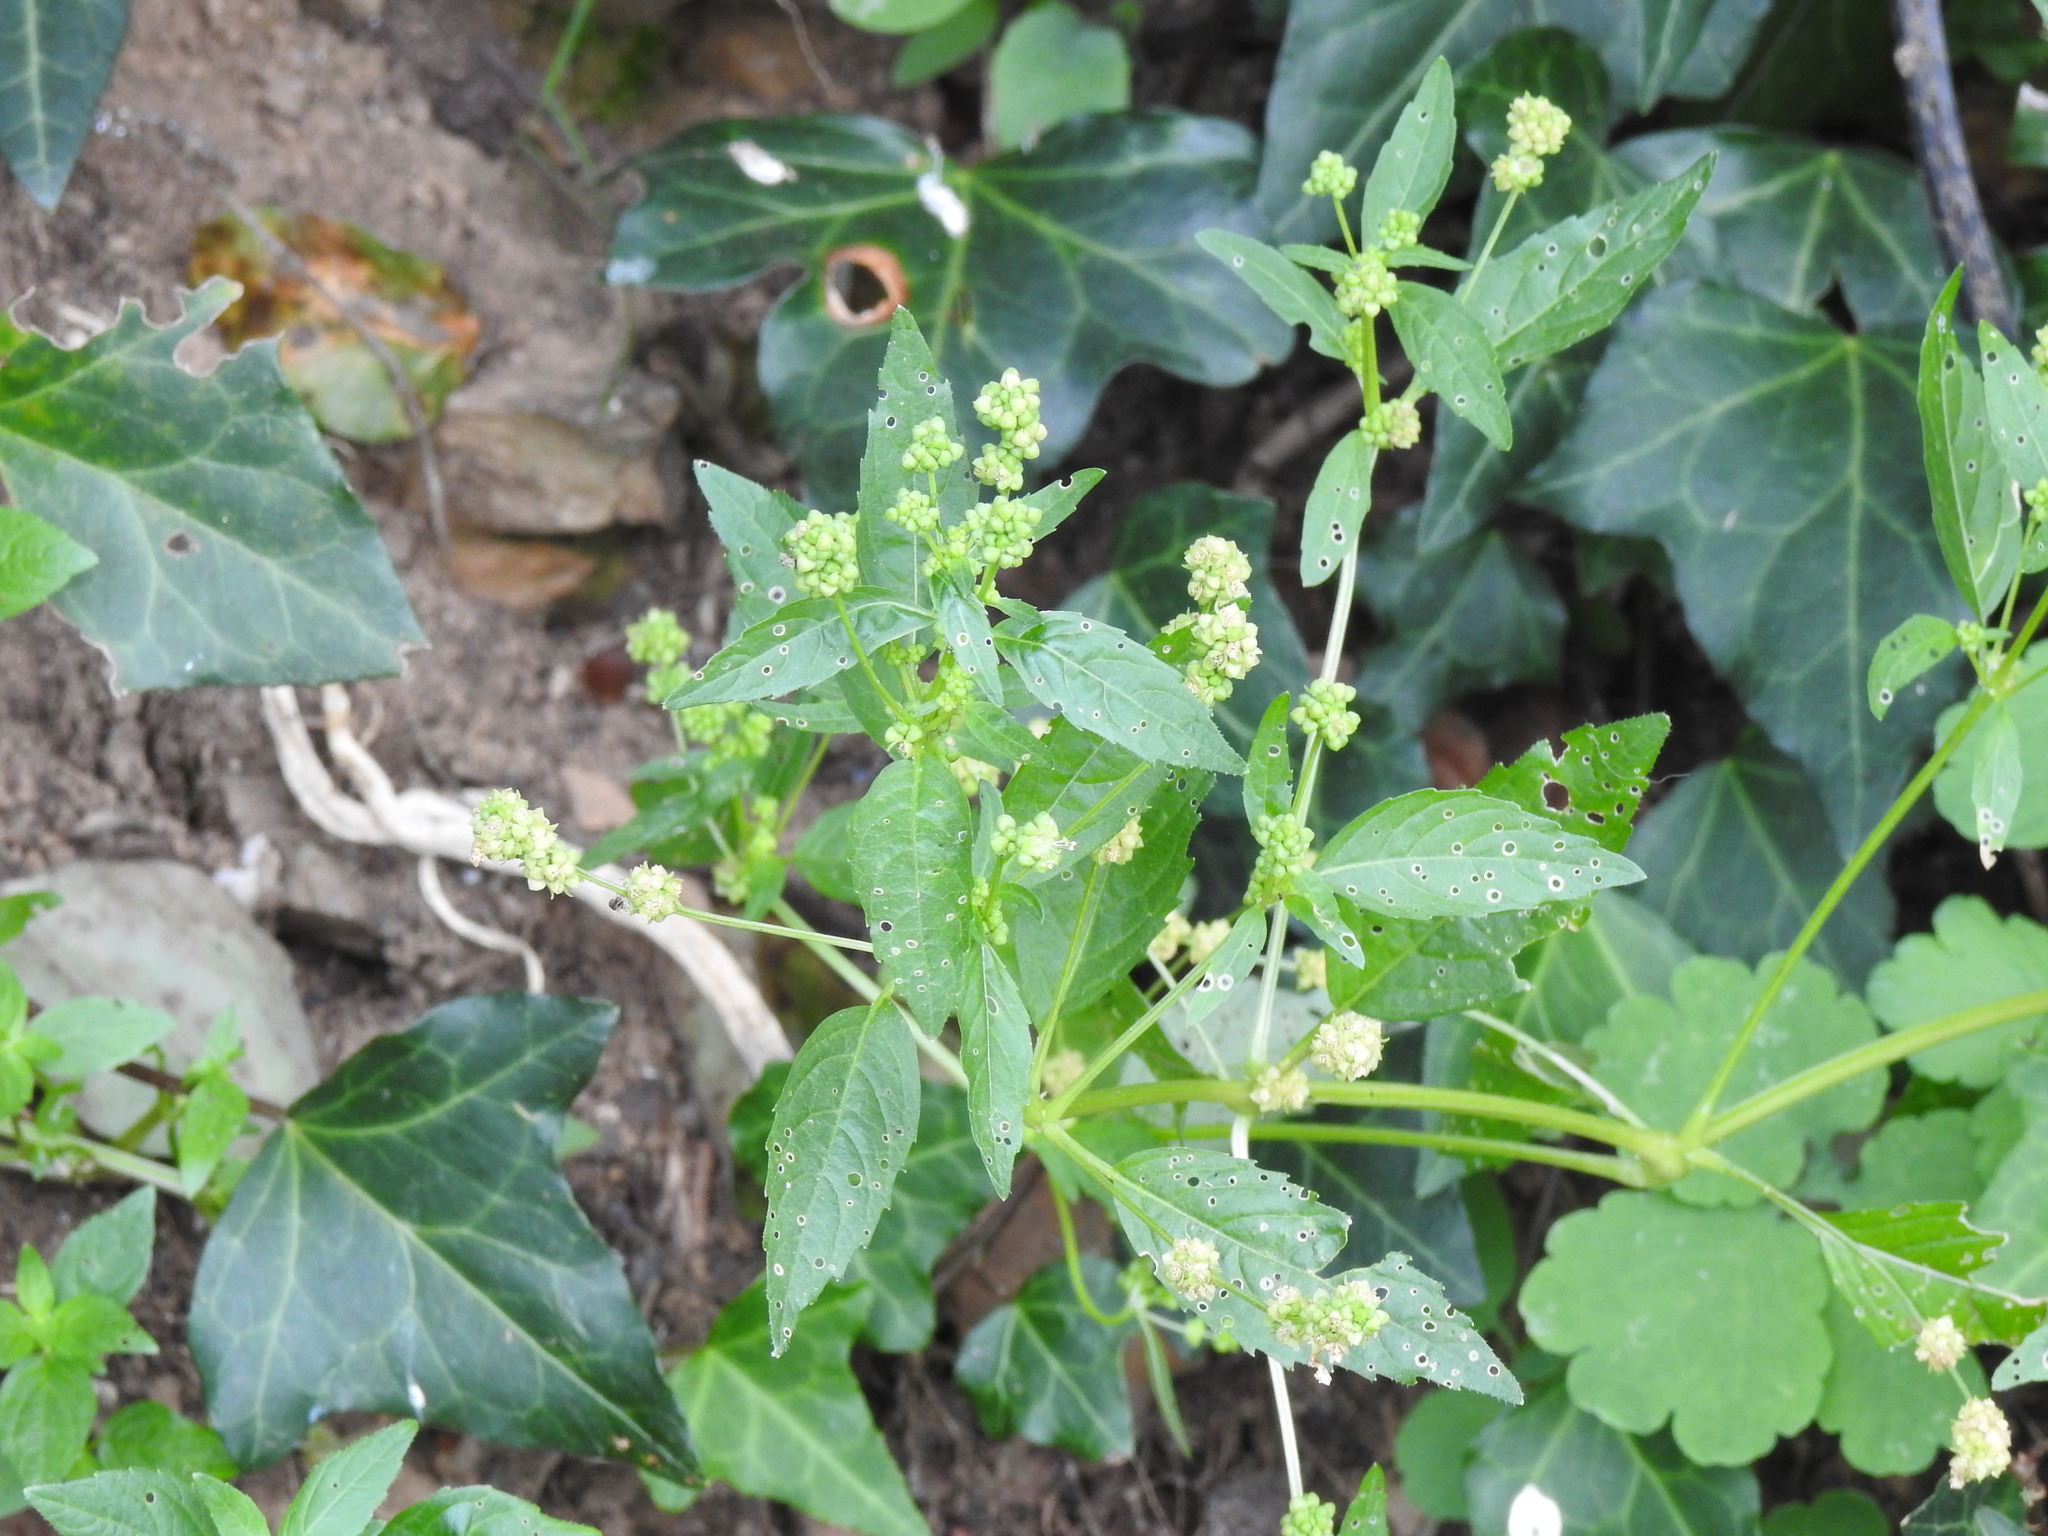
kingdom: Plantae
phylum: Tracheophyta
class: Magnoliopsida
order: Malpighiales
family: Euphorbiaceae
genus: Mercurialis
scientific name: Mercurialis annua
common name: Annual mercury
